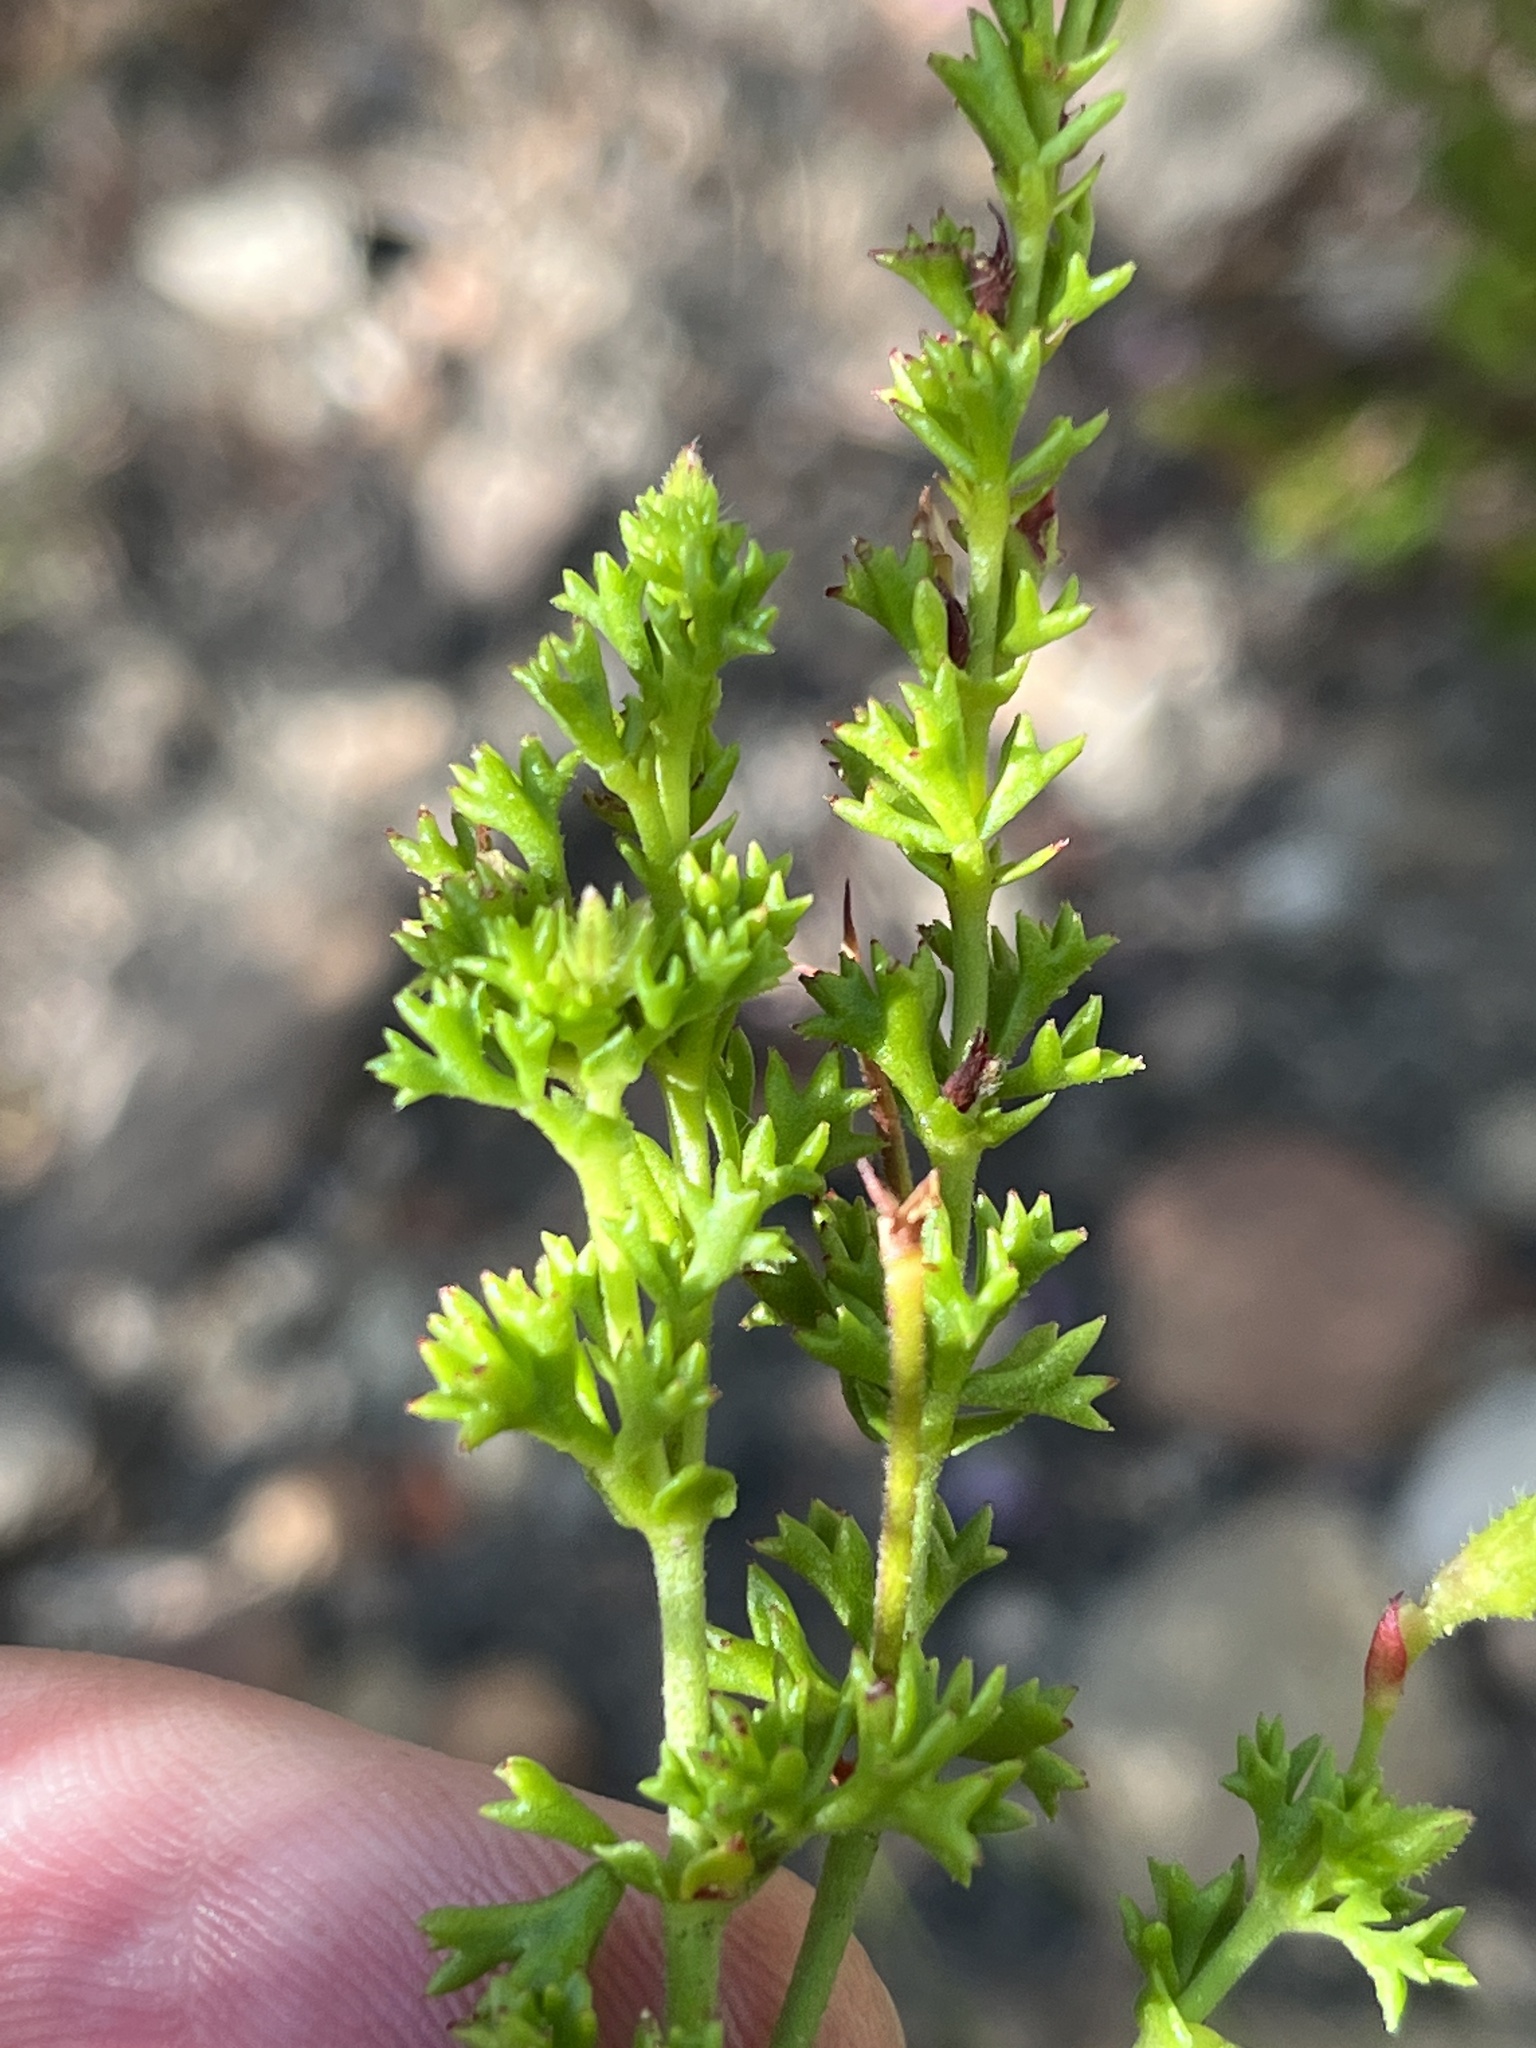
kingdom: Plantae
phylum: Tracheophyta
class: Magnoliopsida
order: Geraniales
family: Geraniaceae
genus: Pelargonium
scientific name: Pelargonium fruticosum
